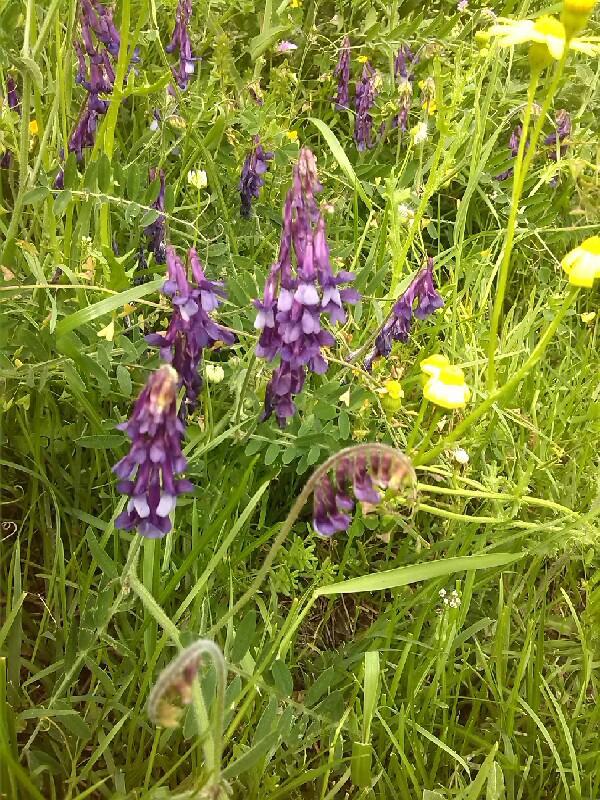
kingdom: Plantae
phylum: Tracheophyta
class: Magnoliopsida
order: Fabales
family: Fabaceae
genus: Vicia
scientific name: Vicia villosa
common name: Fodder vetch
